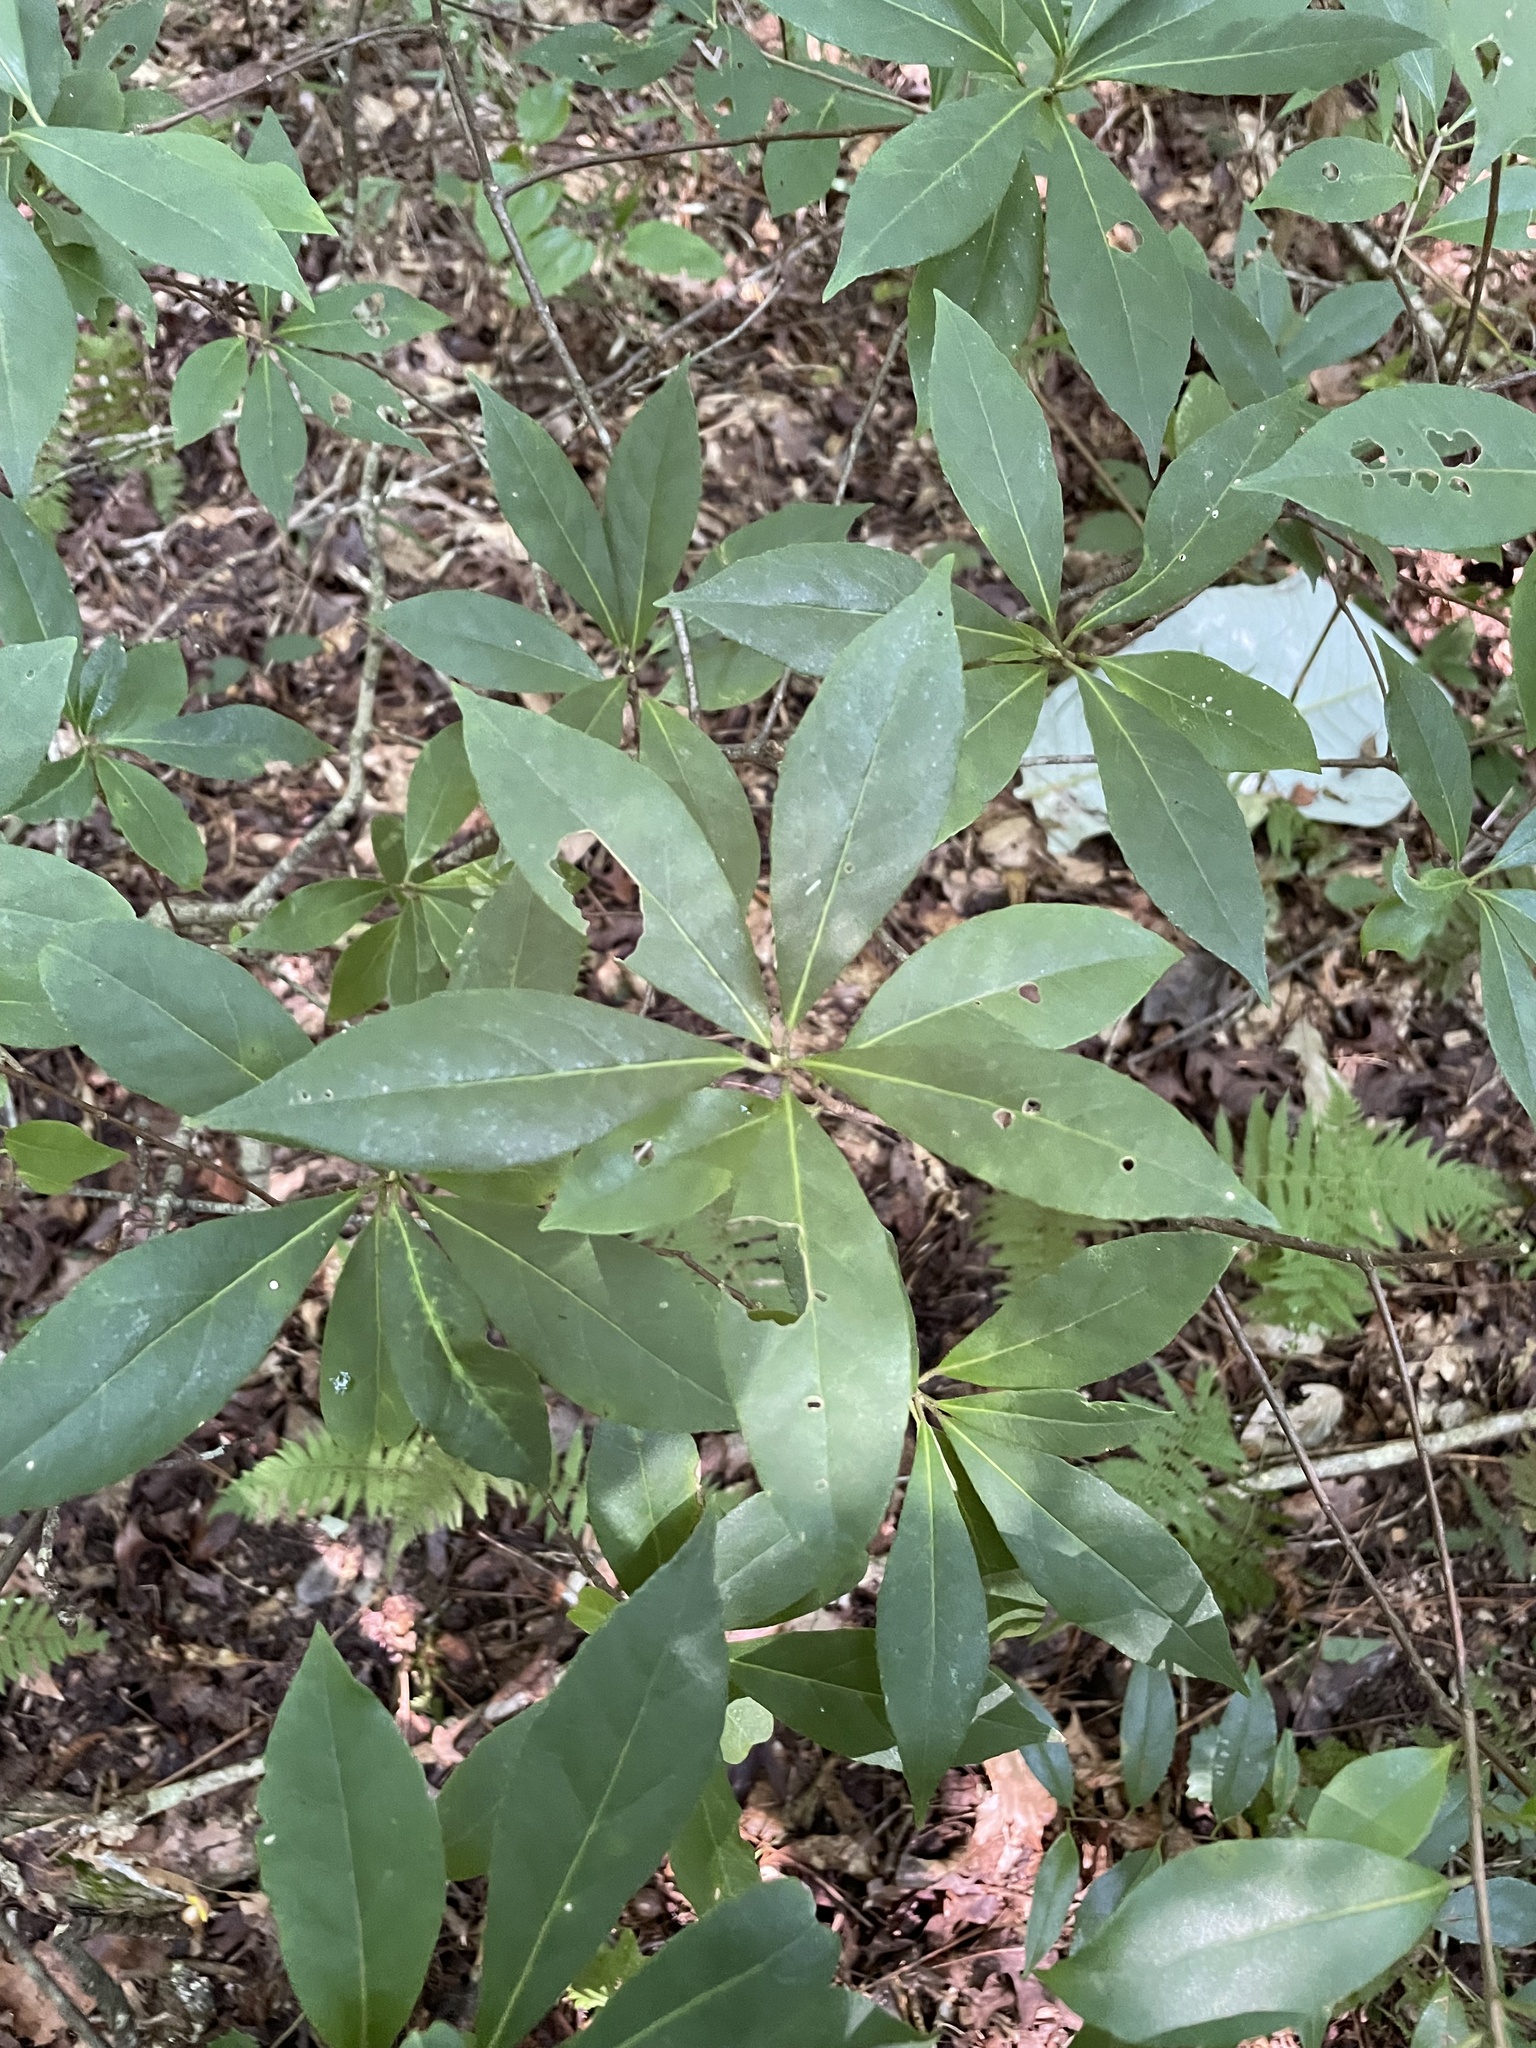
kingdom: Plantae
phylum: Tracheophyta
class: Magnoliopsida
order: Ericales
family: Symplocaceae
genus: Symplocos
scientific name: Symplocos tinctoria
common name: Horse-sugar
